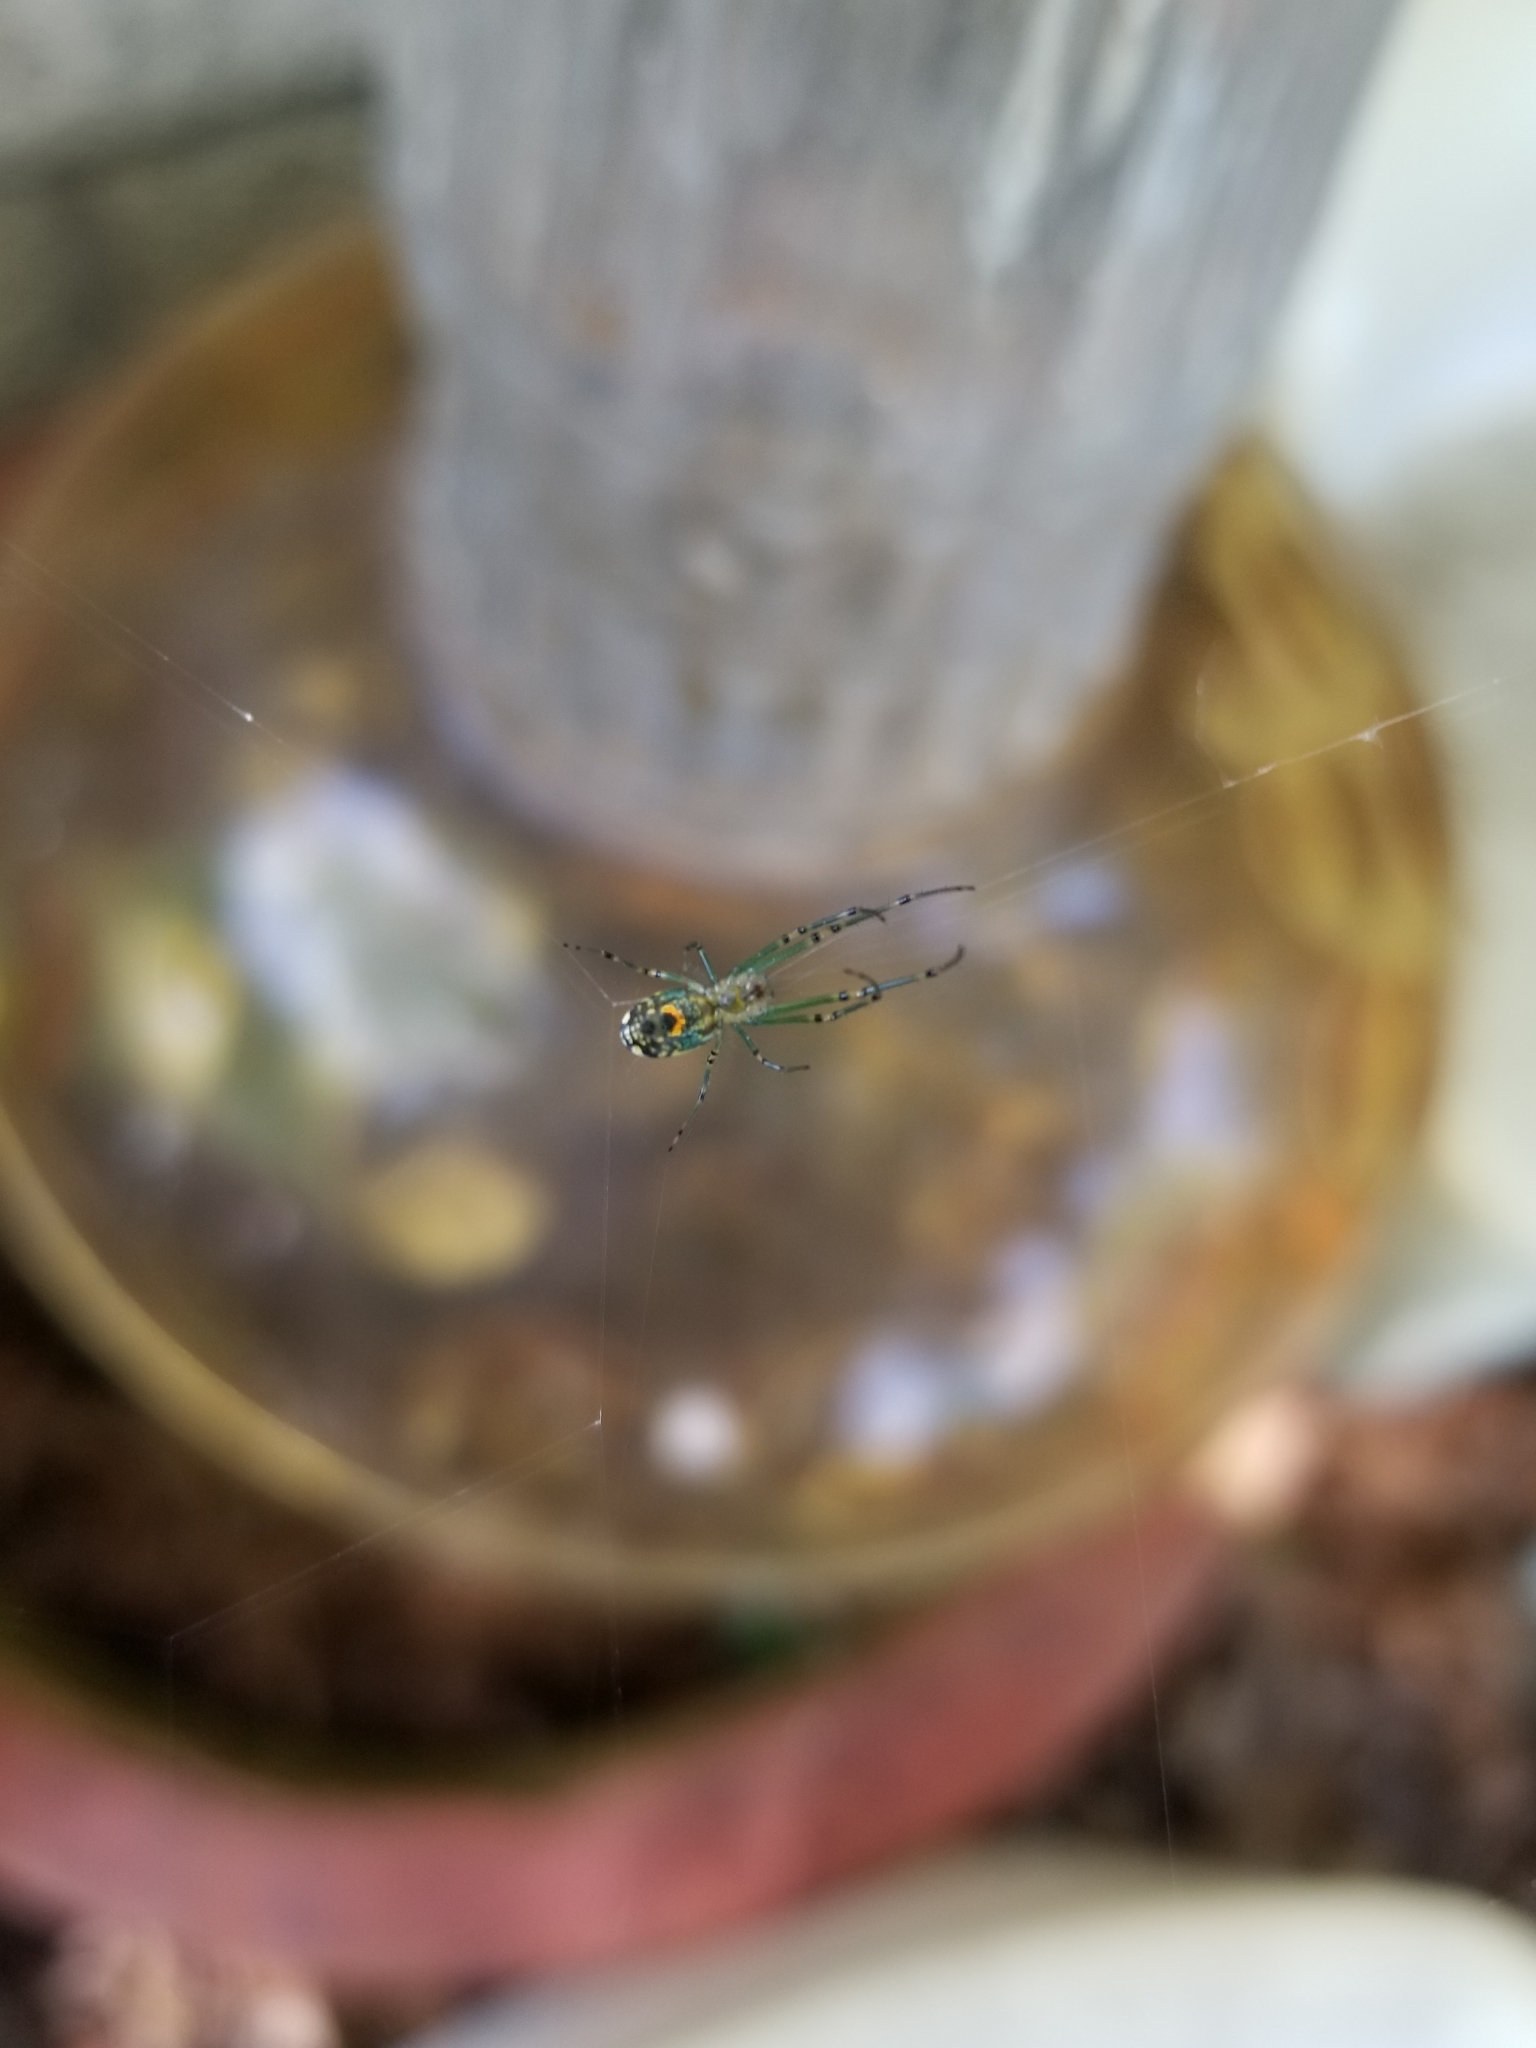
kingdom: Animalia
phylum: Arthropoda
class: Arachnida
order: Araneae
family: Tetragnathidae
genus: Leucauge
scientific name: Leucauge venusta
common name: Longjawed orb weavers
